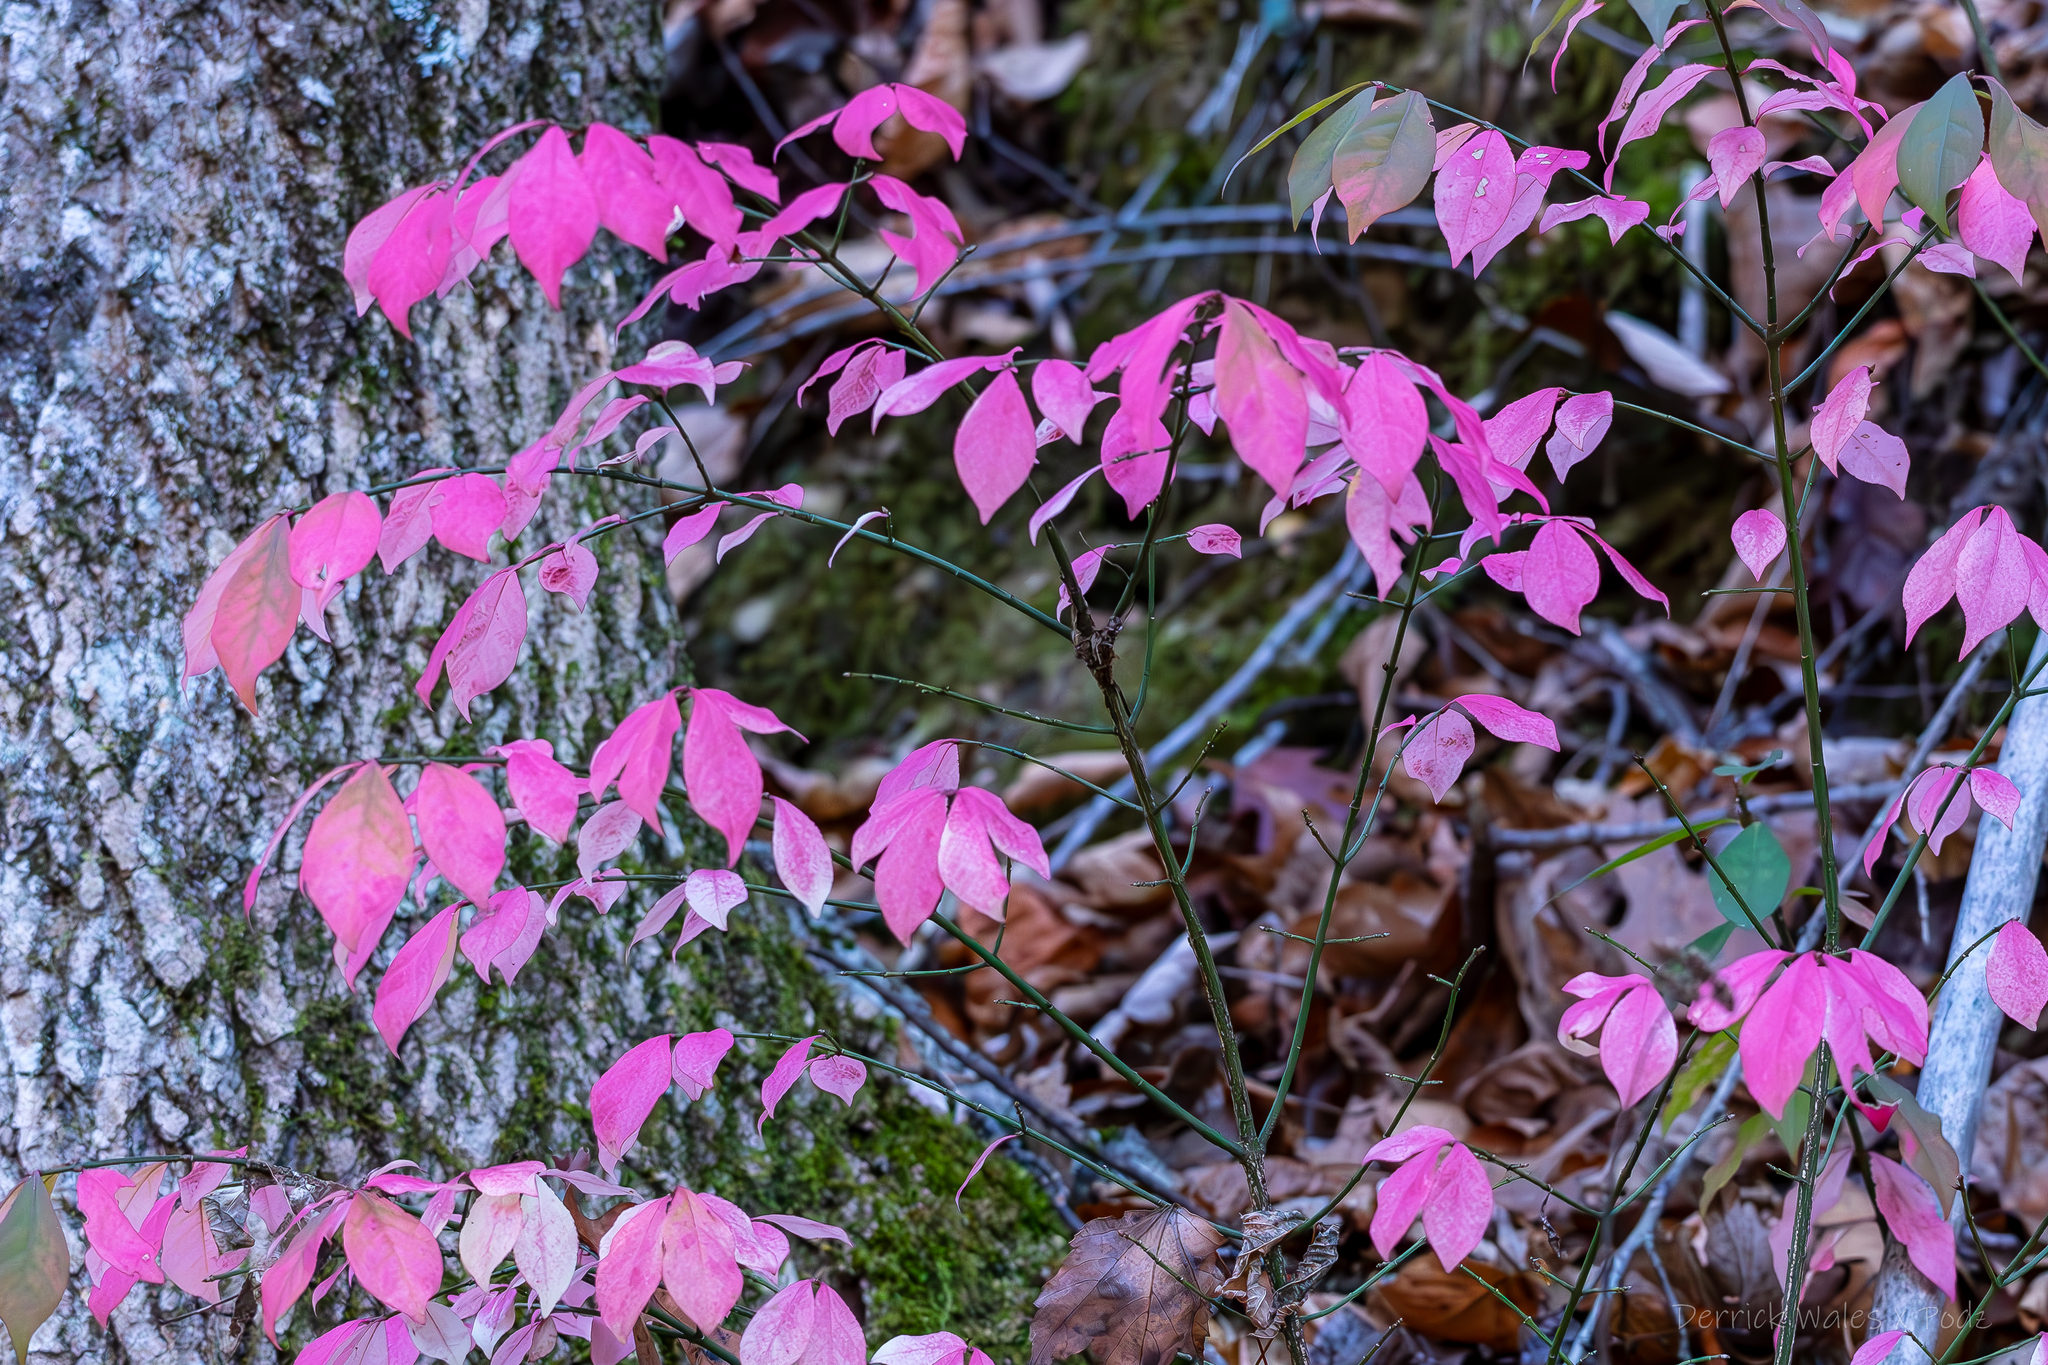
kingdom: Plantae
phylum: Tracheophyta
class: Magnoliopsida
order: Celastrales
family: Celastraceae
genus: Euonymus
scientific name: Euonymus alatus
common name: Winged euonymus
